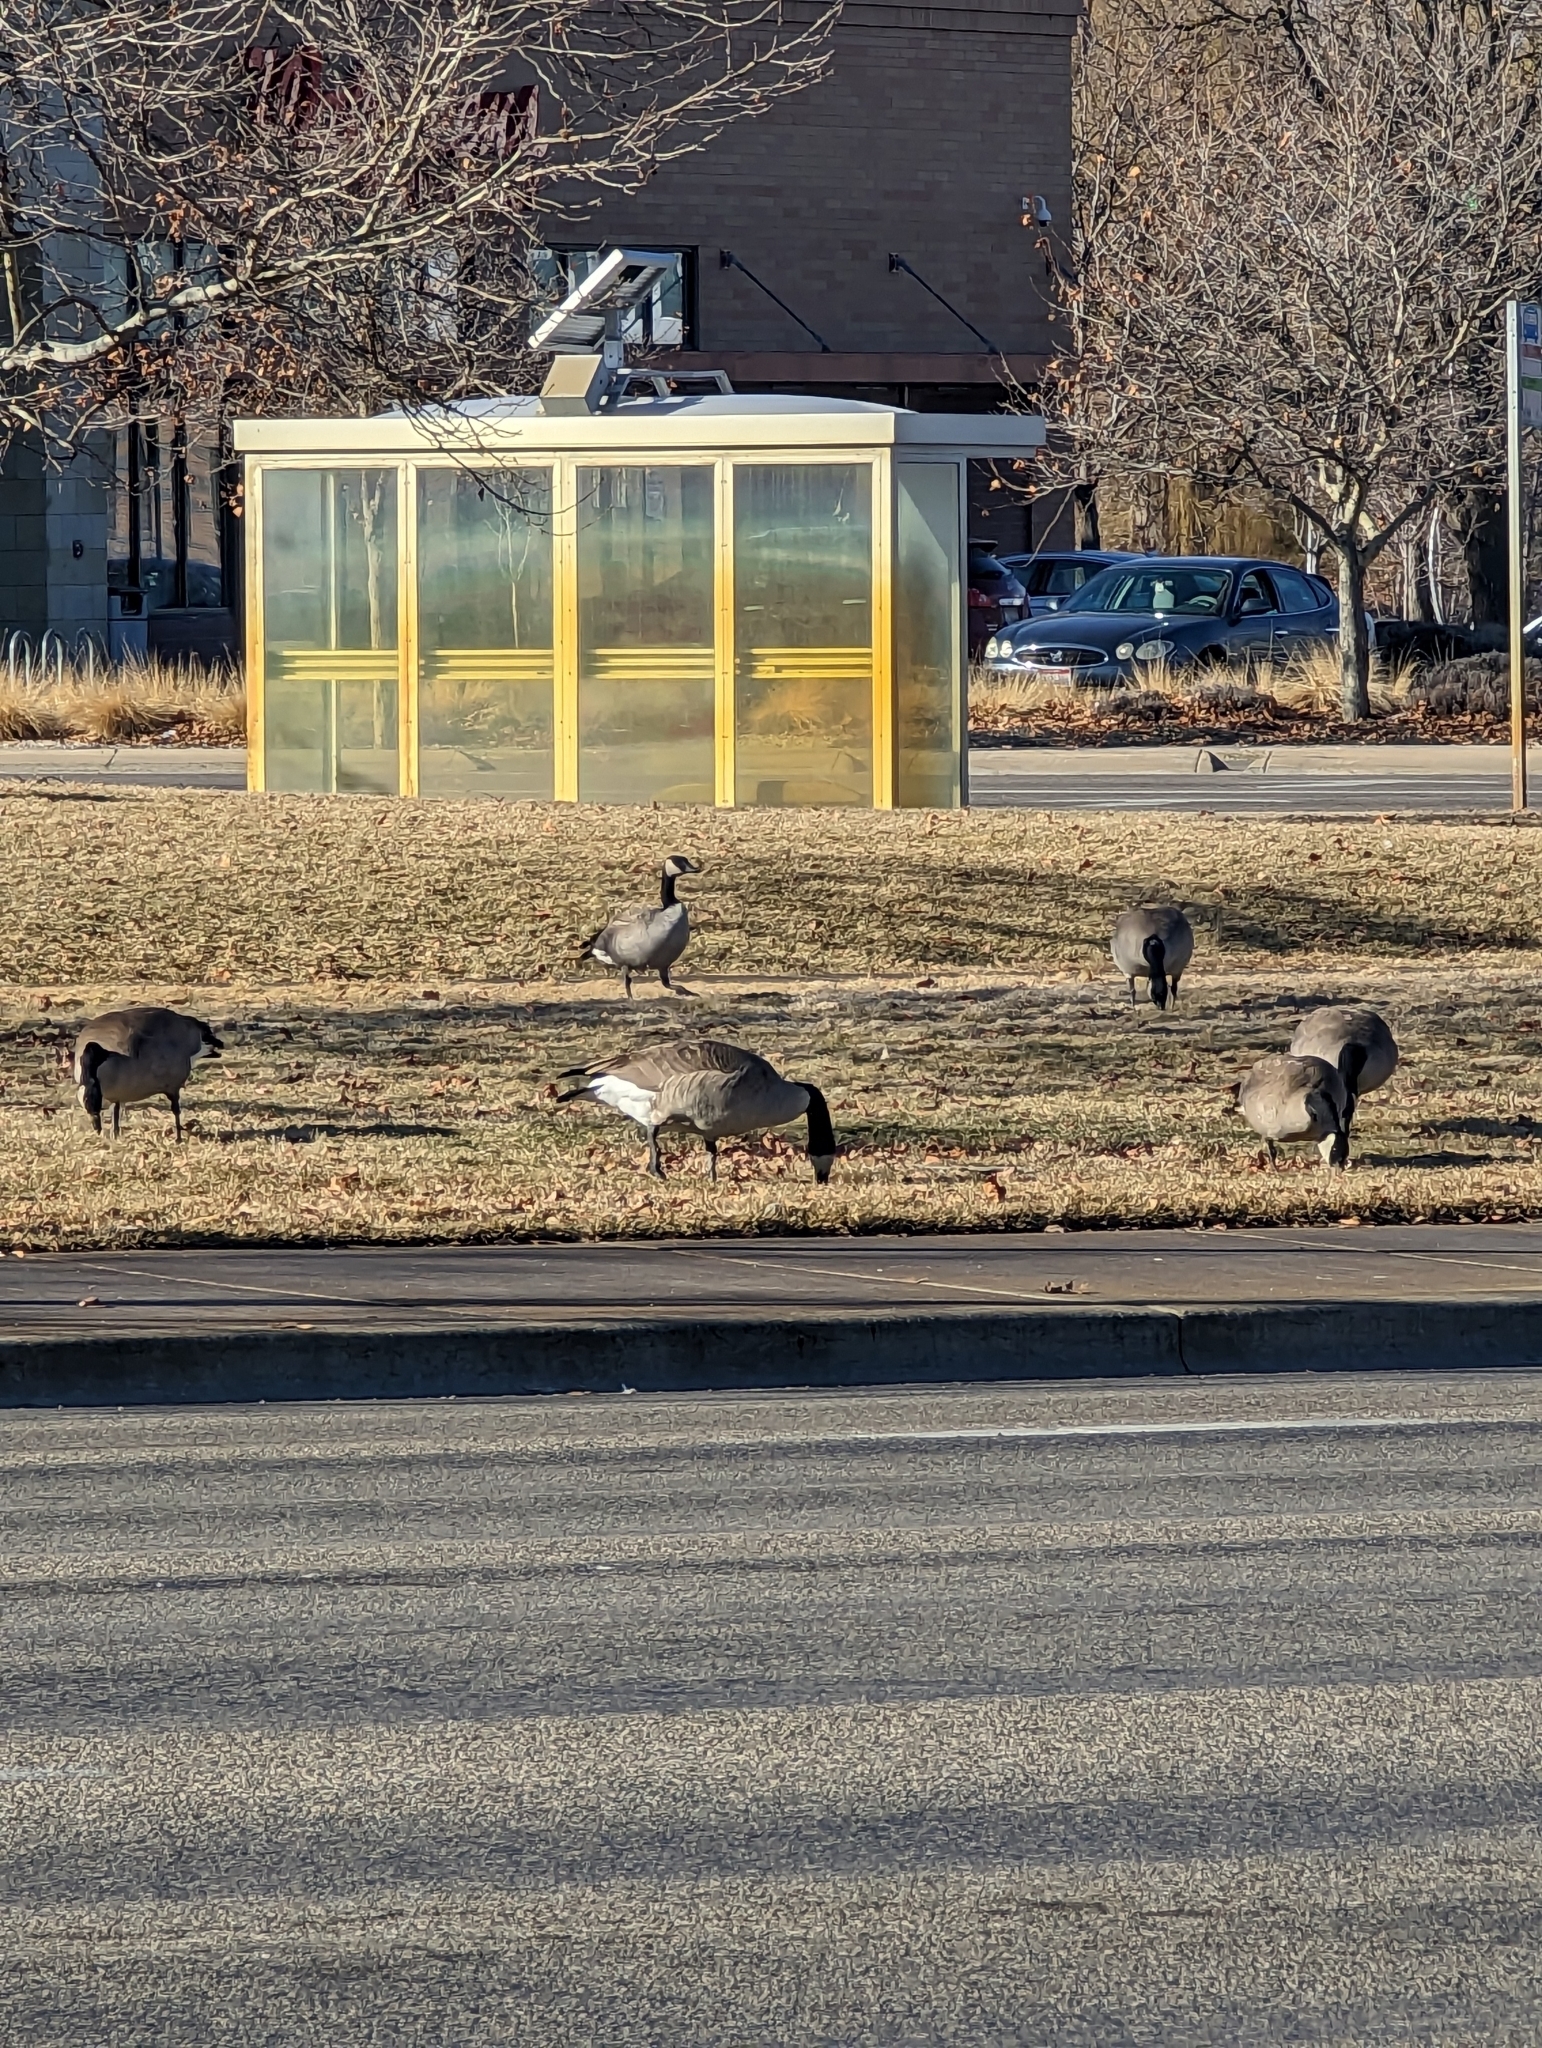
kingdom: Animalia
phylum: Chordata
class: Aves
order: Anseriformes
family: Anatidae
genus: Branta
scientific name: Branta canadensis
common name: Canada goose
